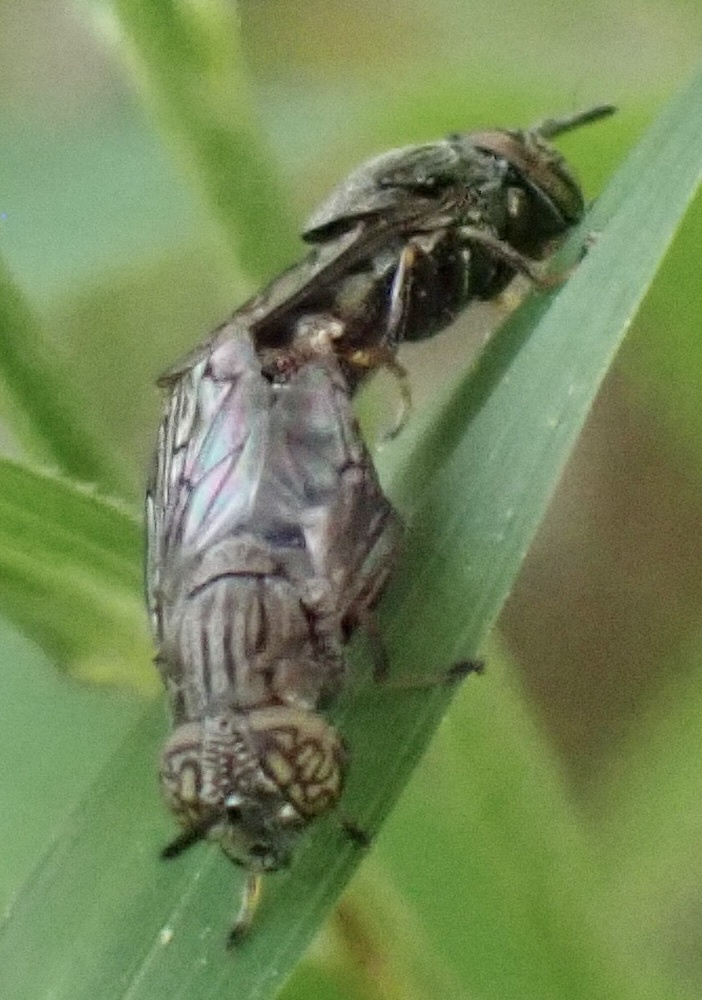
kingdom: Animalia
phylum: Arthropoda
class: Insecta
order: Diptera
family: Syrphidae
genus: Orthonevra
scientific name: Orthonevra nitida
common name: Wavy mucksucker
